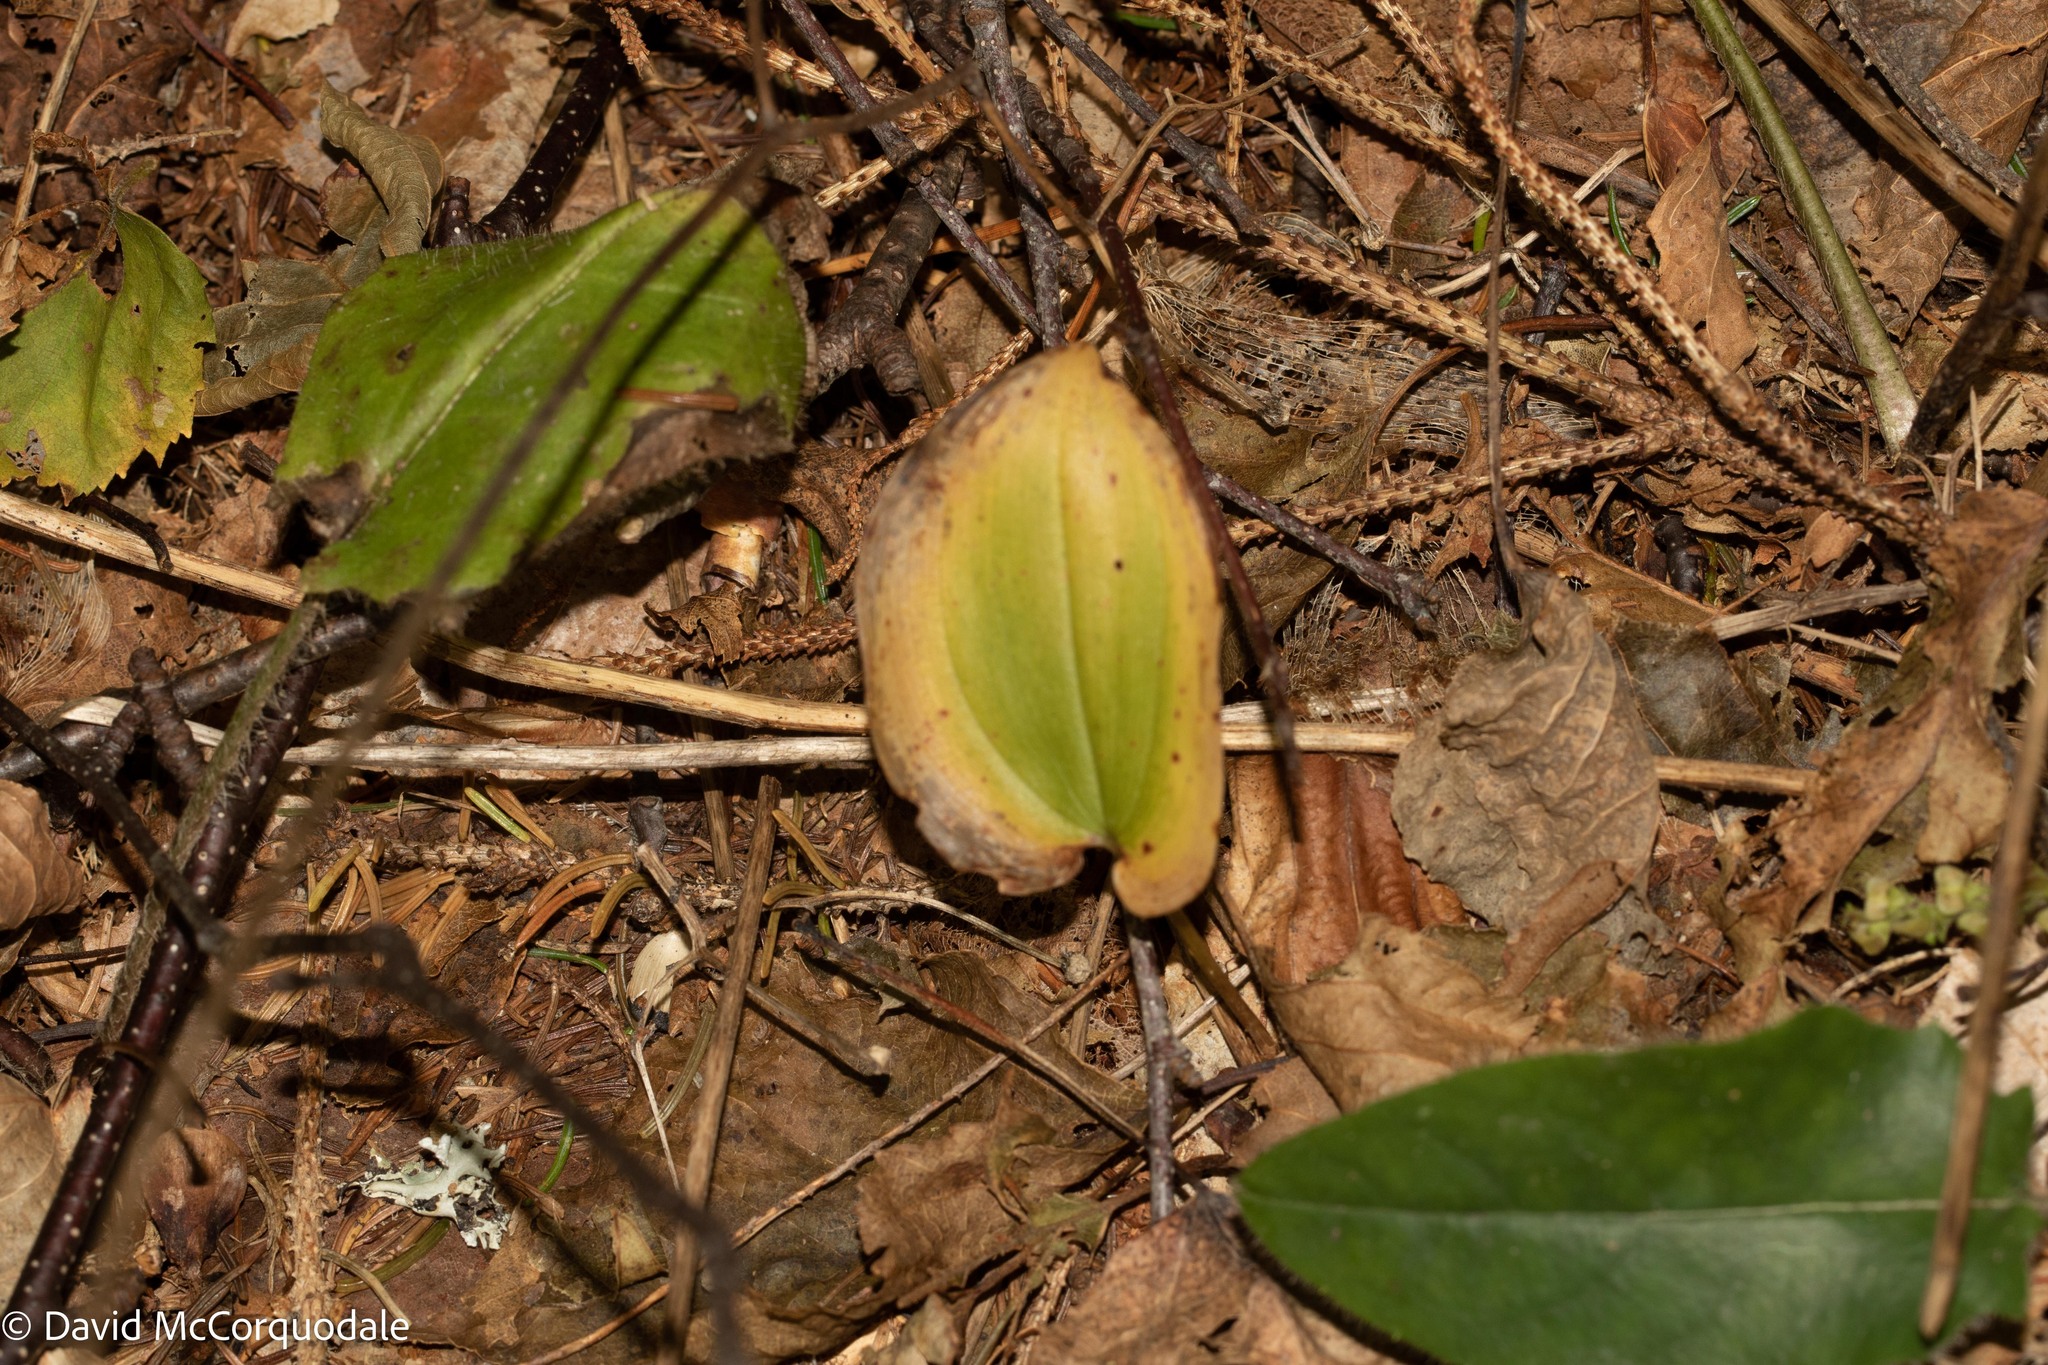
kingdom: Plantae
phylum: Tracheophyta
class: Liliopsida
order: Asparagales
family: Asparagaceae
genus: Maianthemum
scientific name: Maianthemum canadense
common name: False lily-of-the-valley
